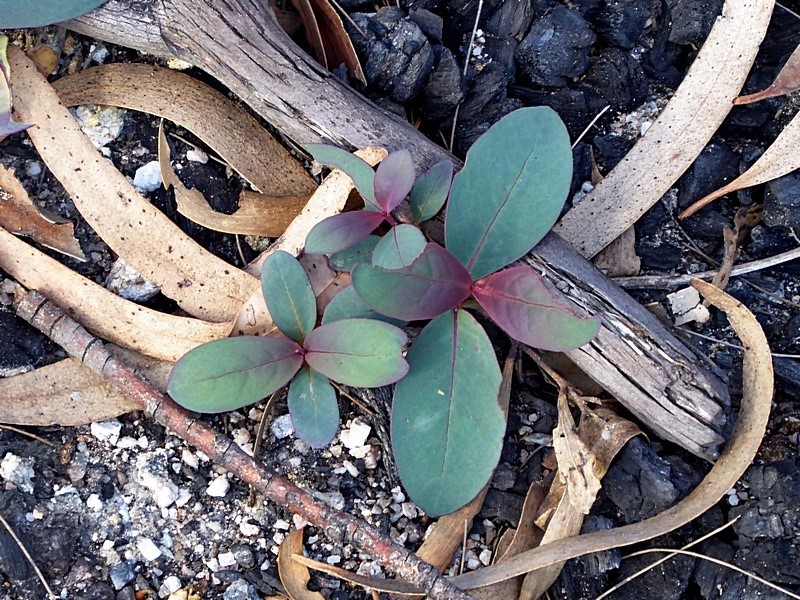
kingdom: Plantae
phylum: Tracheophyta
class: Magnoliopsida
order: Myrtales
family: Myrtaceae
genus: Eucalyptus
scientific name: Eucalyptus stenostoma
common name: Jillaga ash
